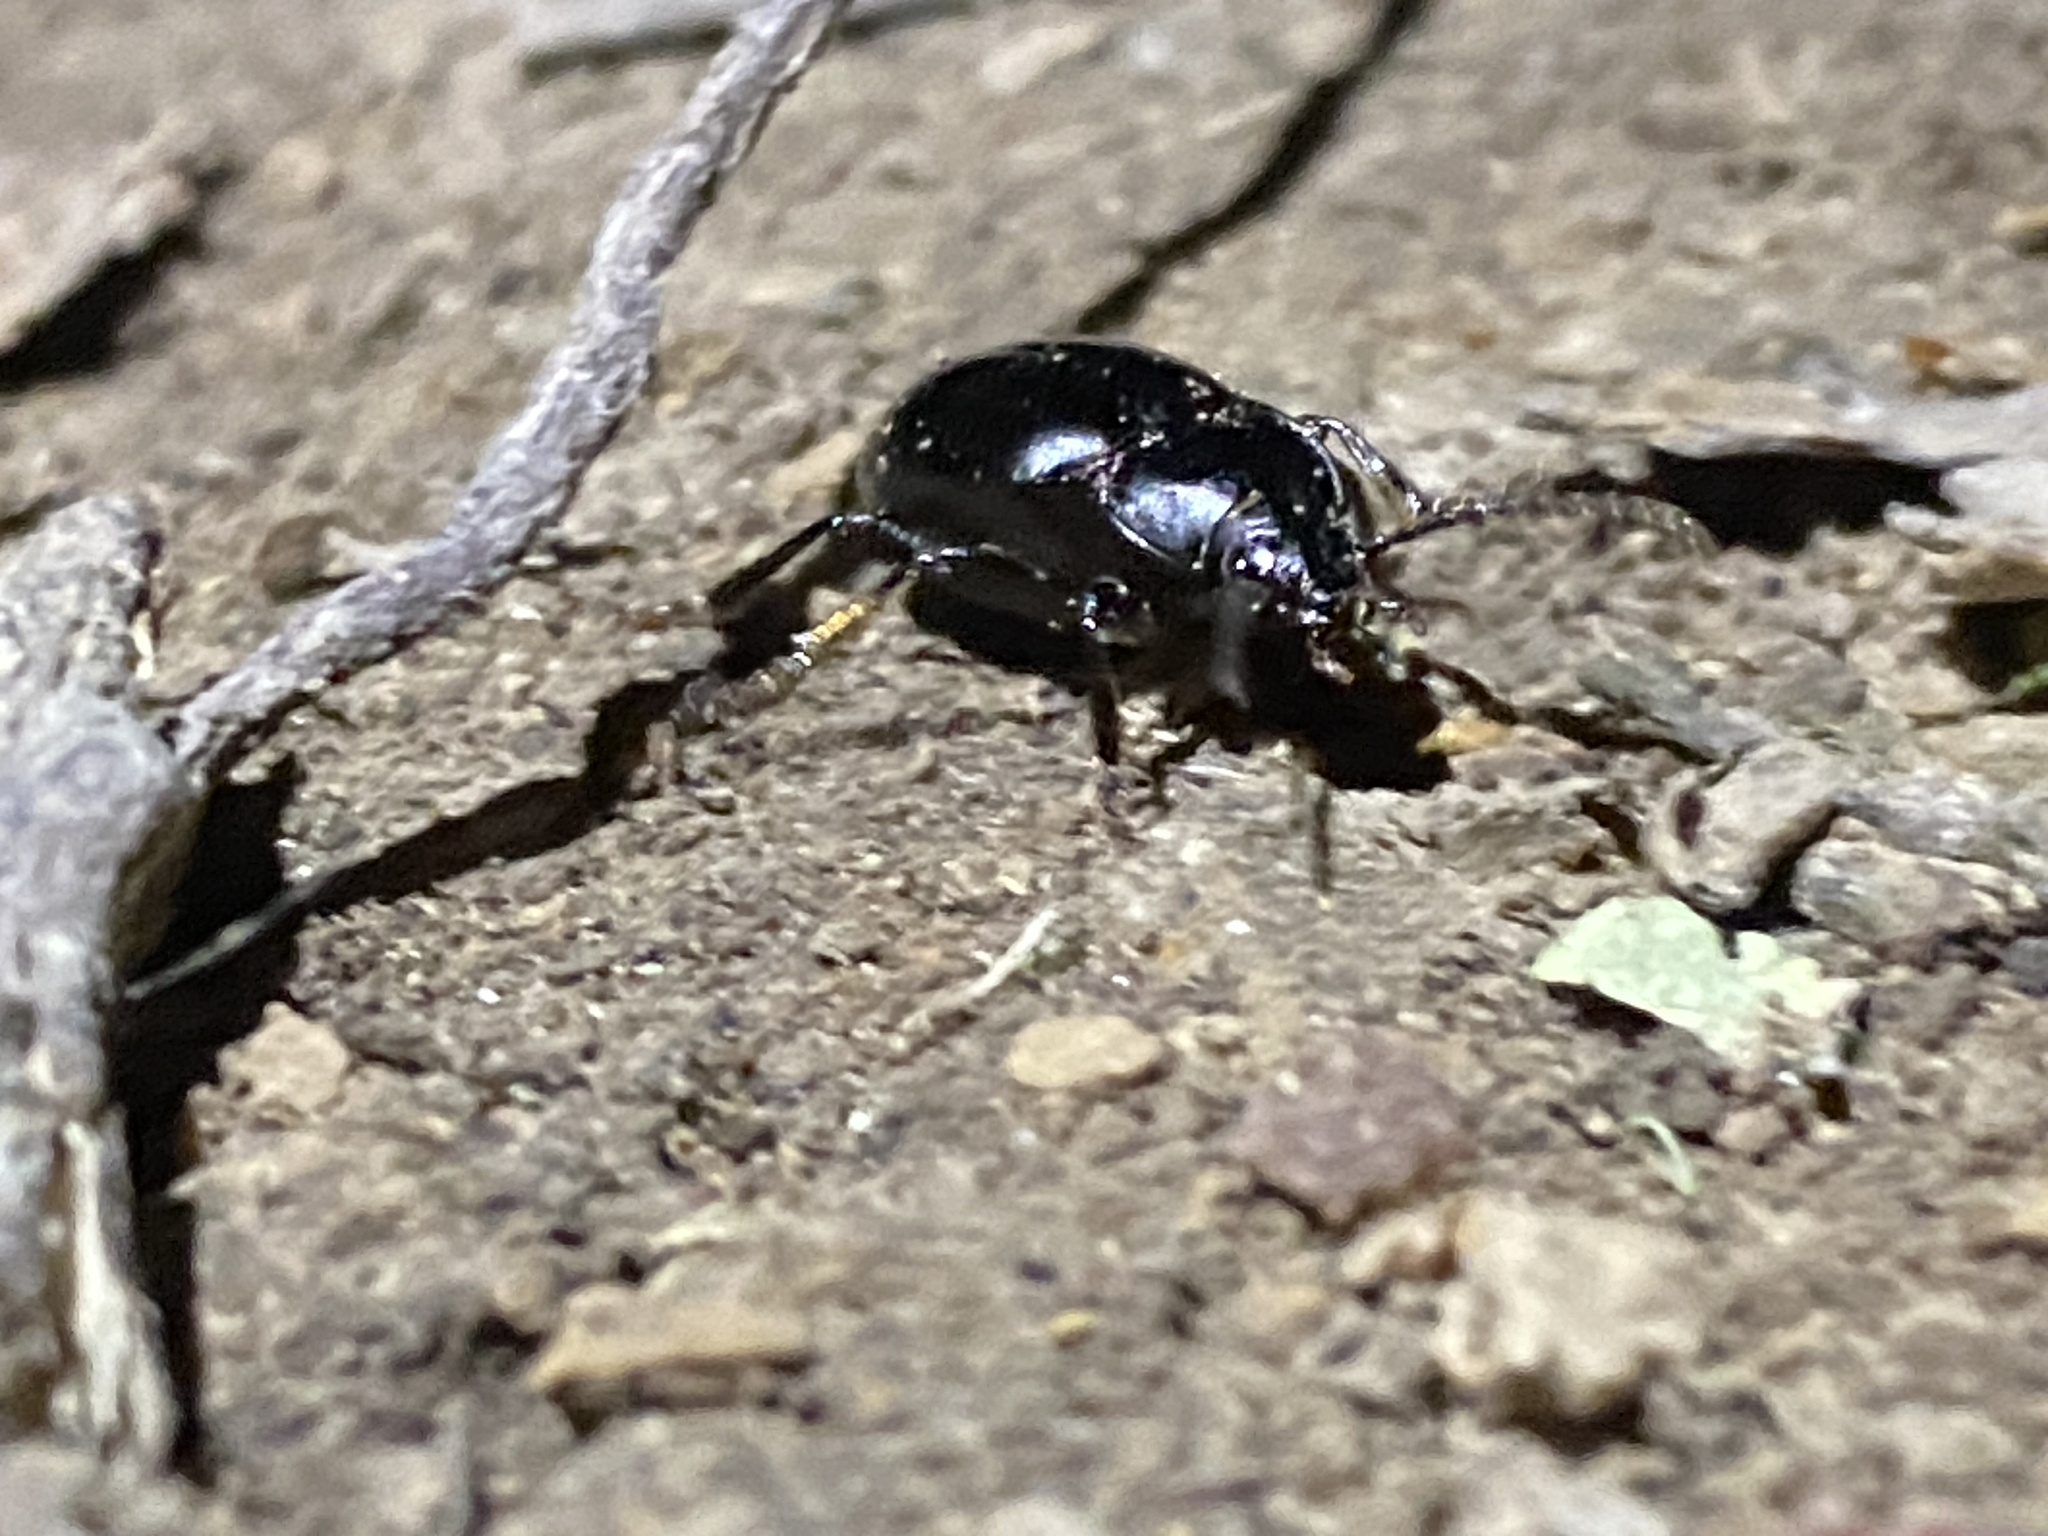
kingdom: Animalia
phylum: Arthropoda
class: Insecta
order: Coleoptera
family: Carabidae
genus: Metrius
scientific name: Metrius contractus
